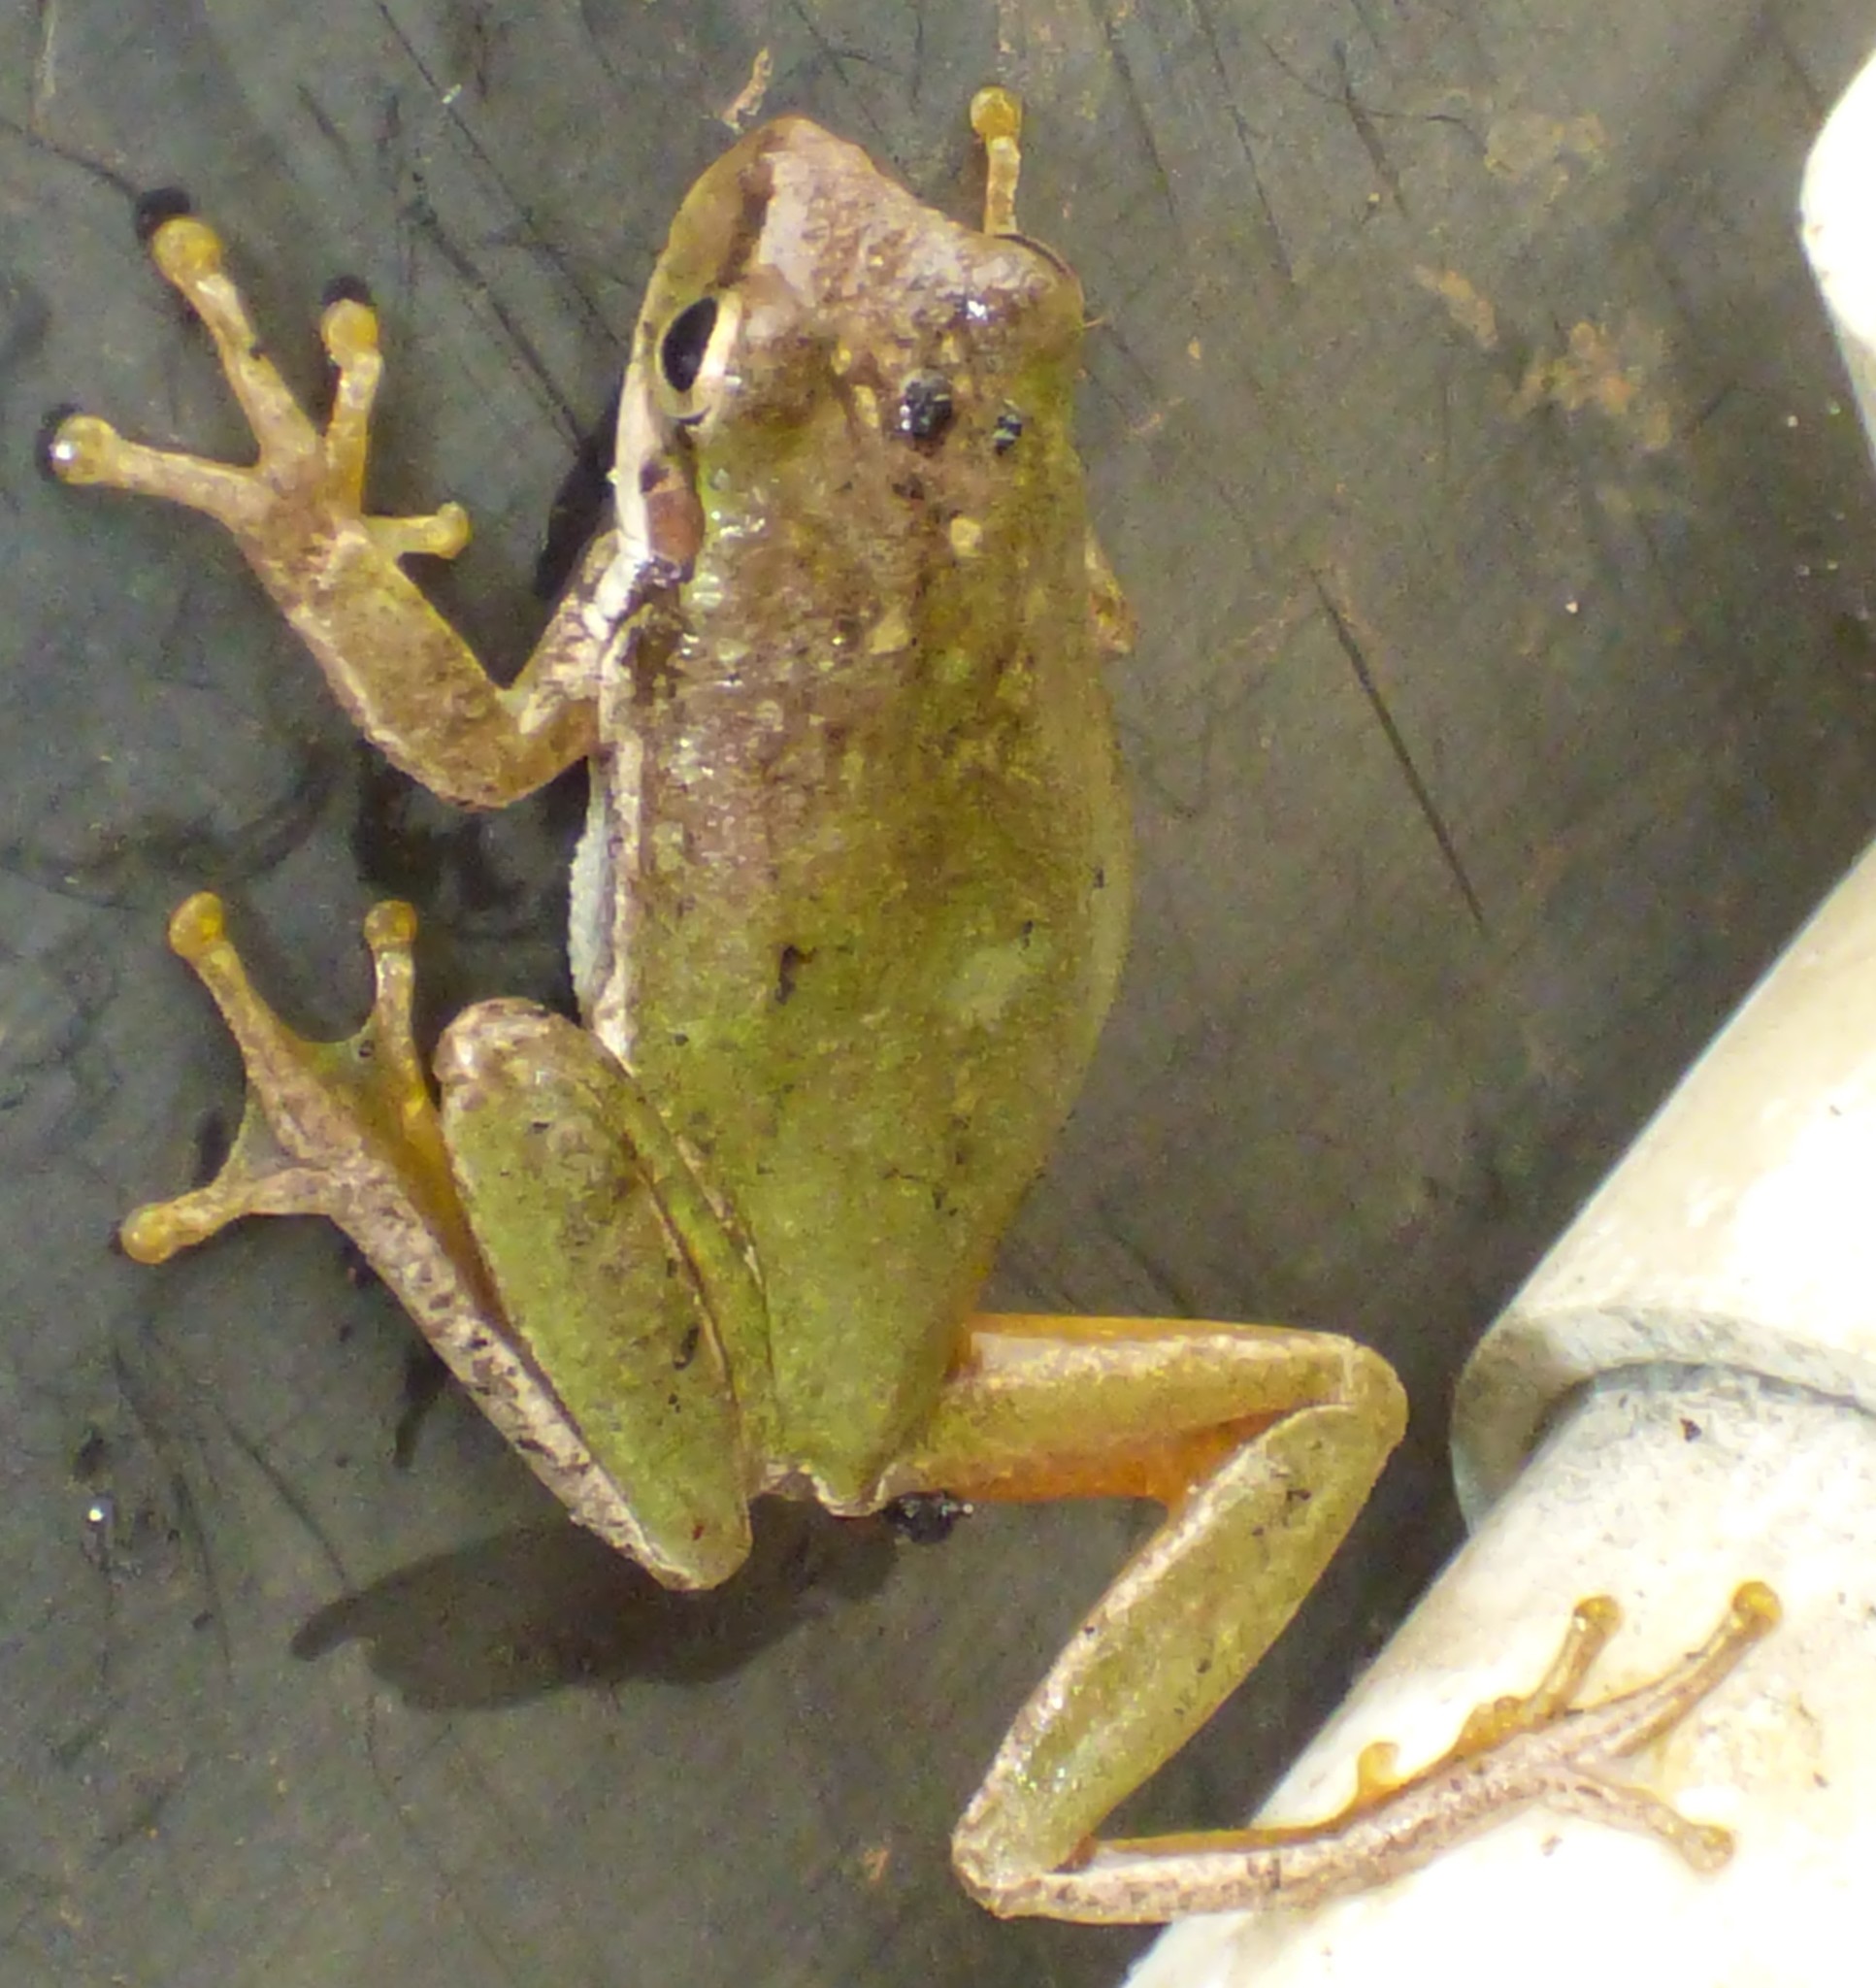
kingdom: Animalia
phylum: Chordata
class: Amphibia
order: Anura
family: Hylidae
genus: Dryophytes
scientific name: Dryophytes squirellus
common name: Squirrel treefrog
